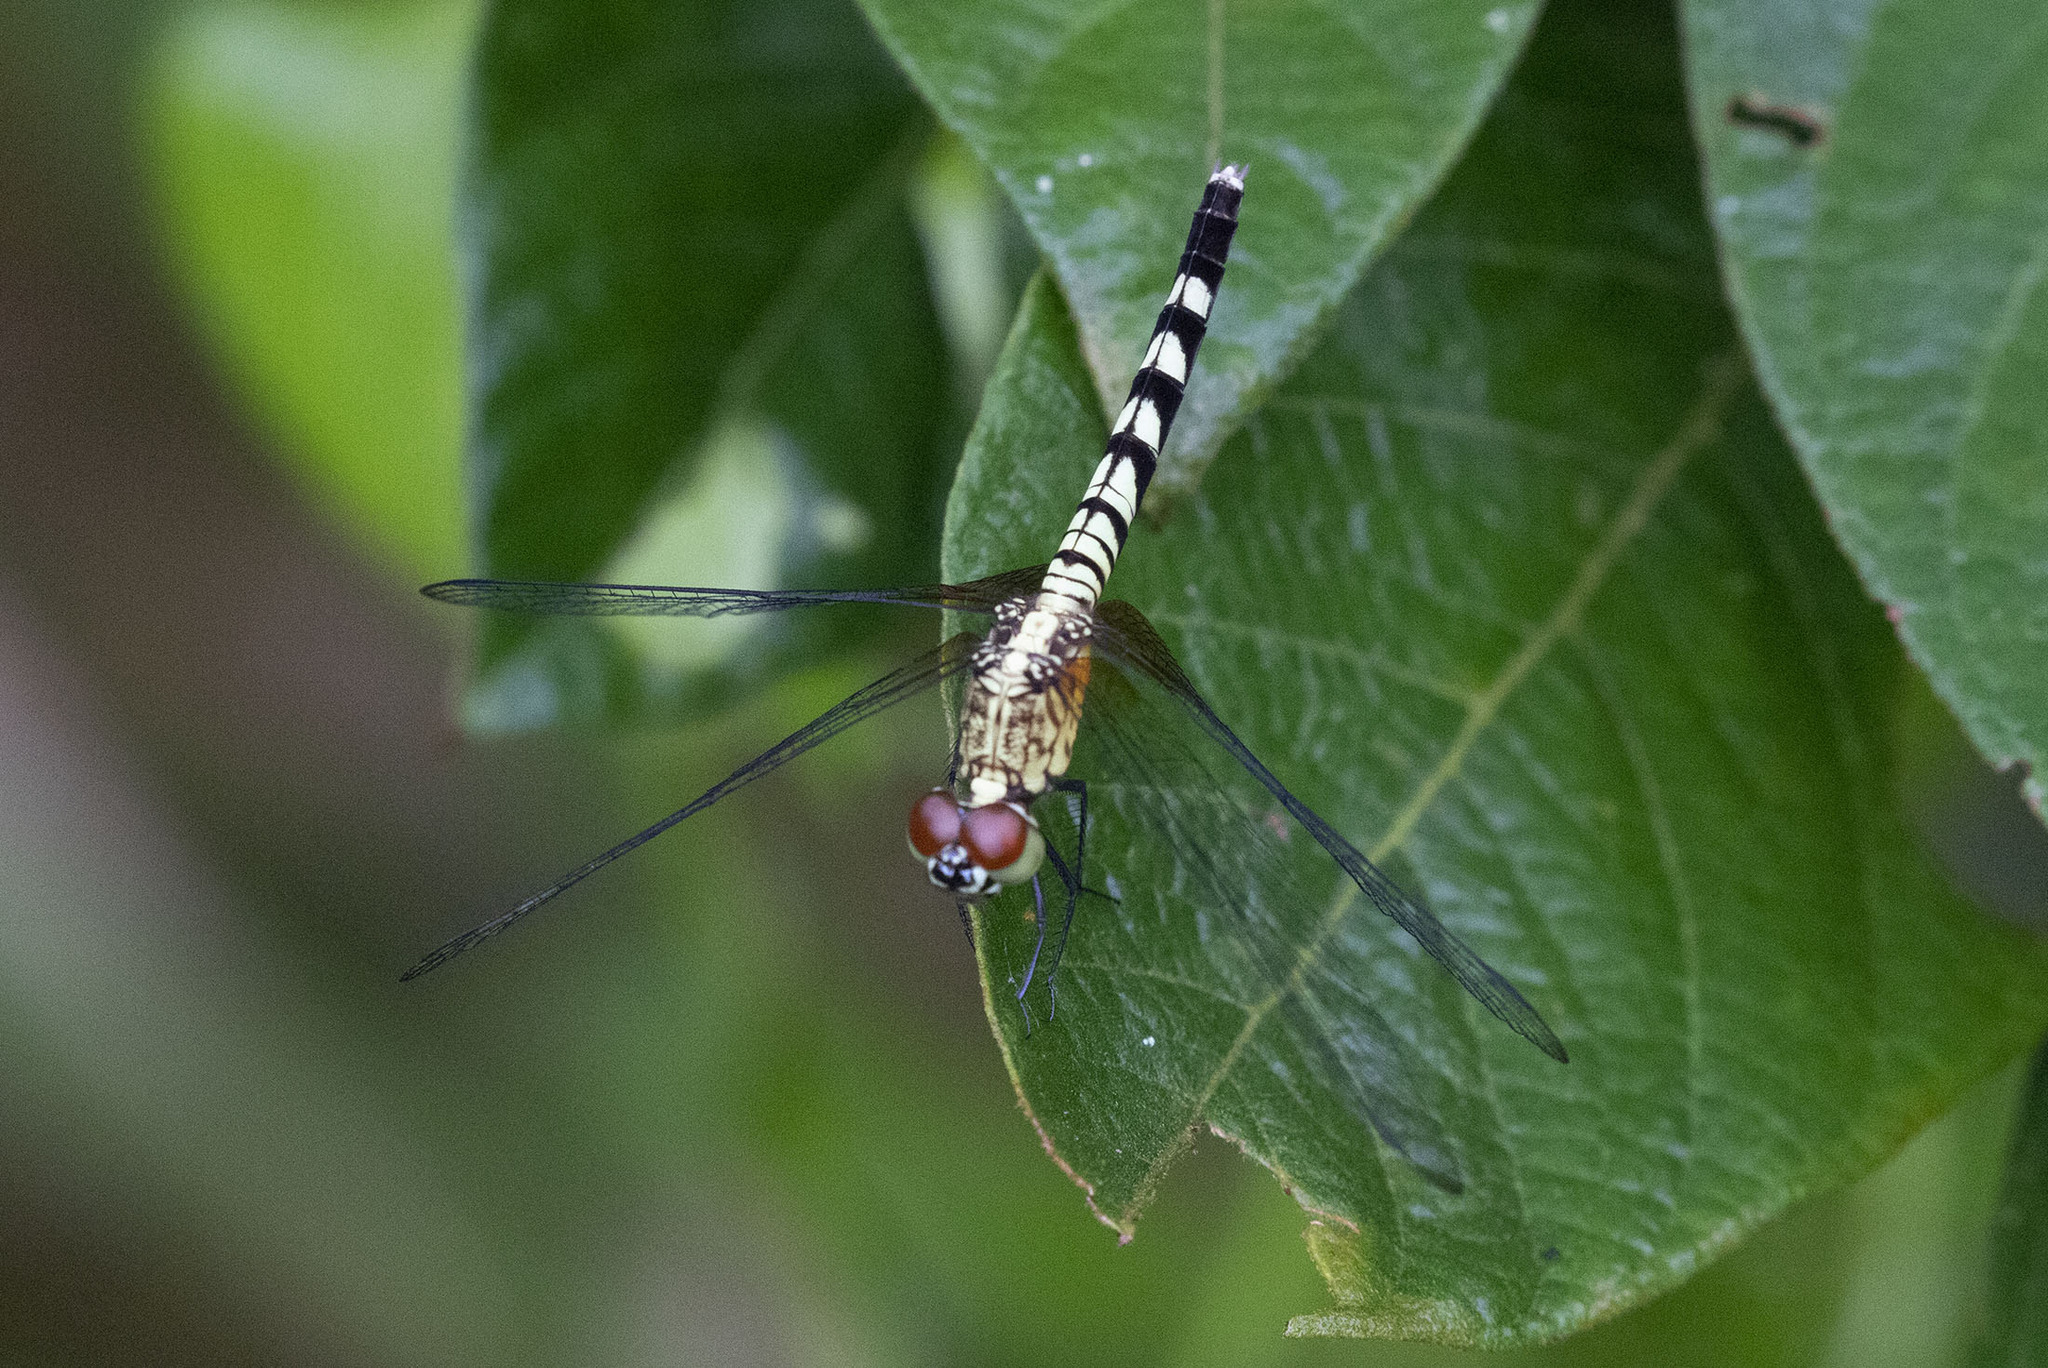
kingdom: Animalia
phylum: Arthropoda
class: Insecta
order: Odonata
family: Libellulidae
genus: Erythrodiplax
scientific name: Erythrodiplax unimaculata
